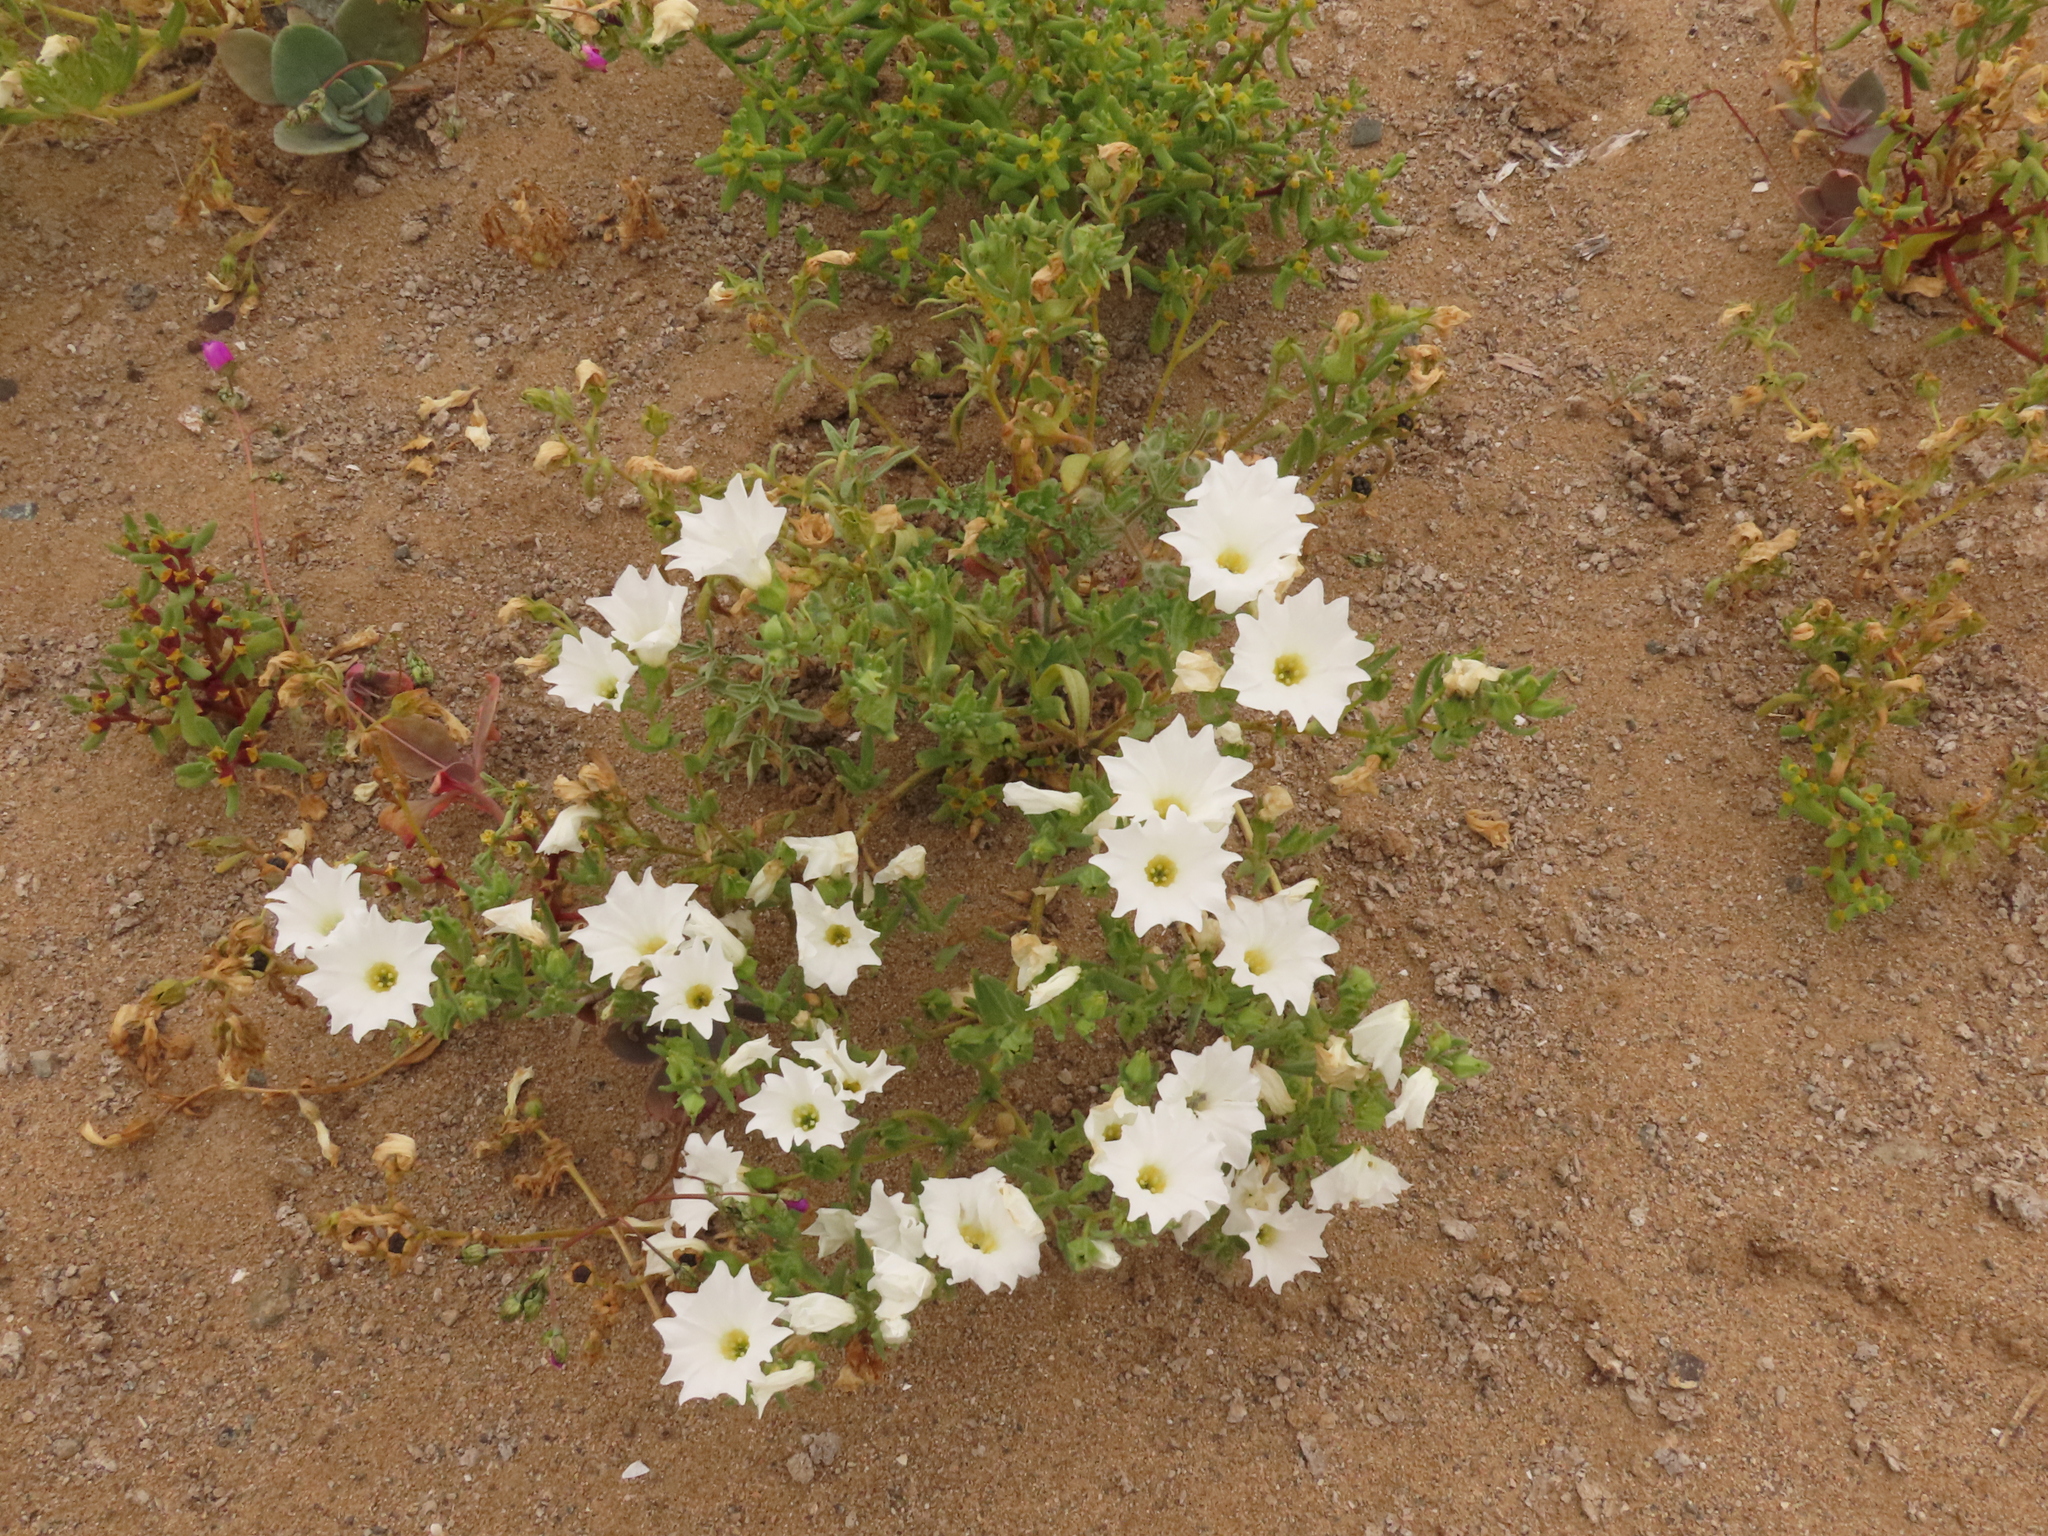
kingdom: Plantae
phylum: Tracheophyta
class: Magnoliopsida
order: Solanales
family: Solanaceae
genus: Nolana
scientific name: Nolana baccata
